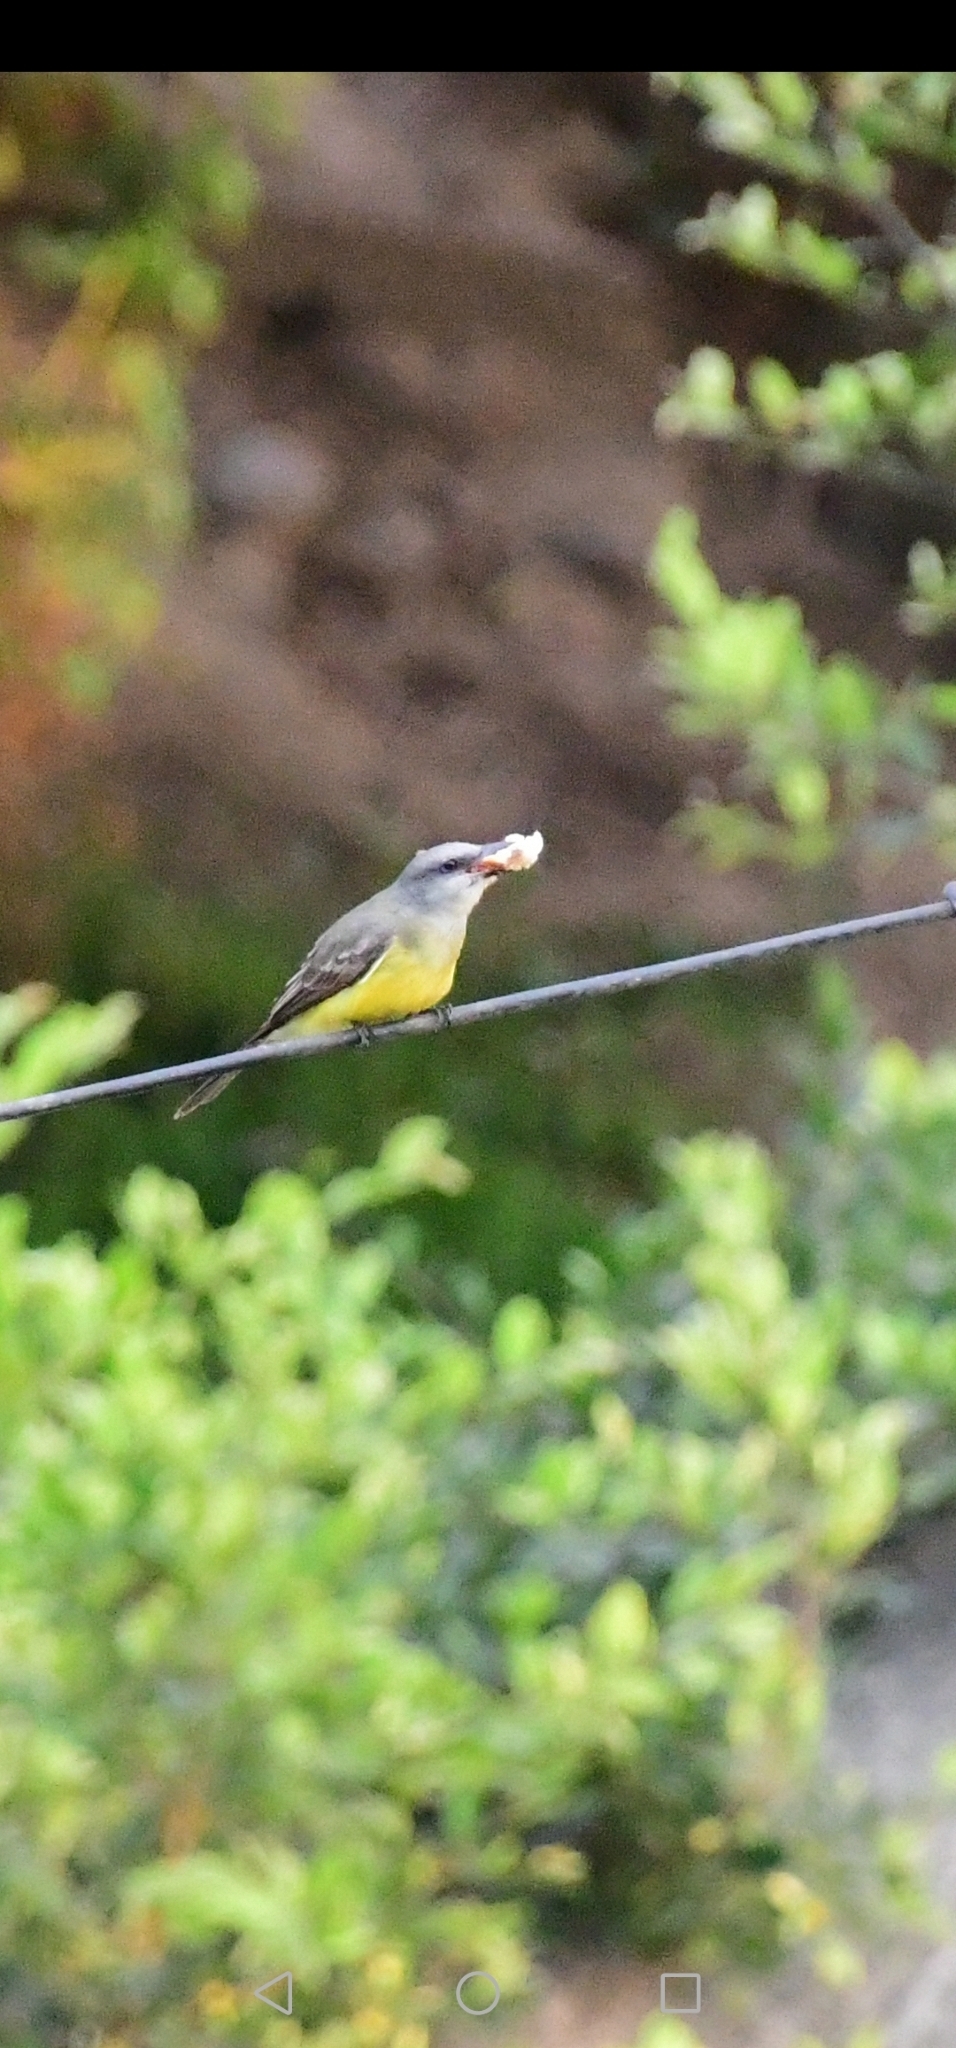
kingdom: Animalia
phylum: Chordata
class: Aves
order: Passeriformes
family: Tyrannidae
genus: Tyrannus
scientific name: Tyrannus melancholicus
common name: Tropical kingbird
